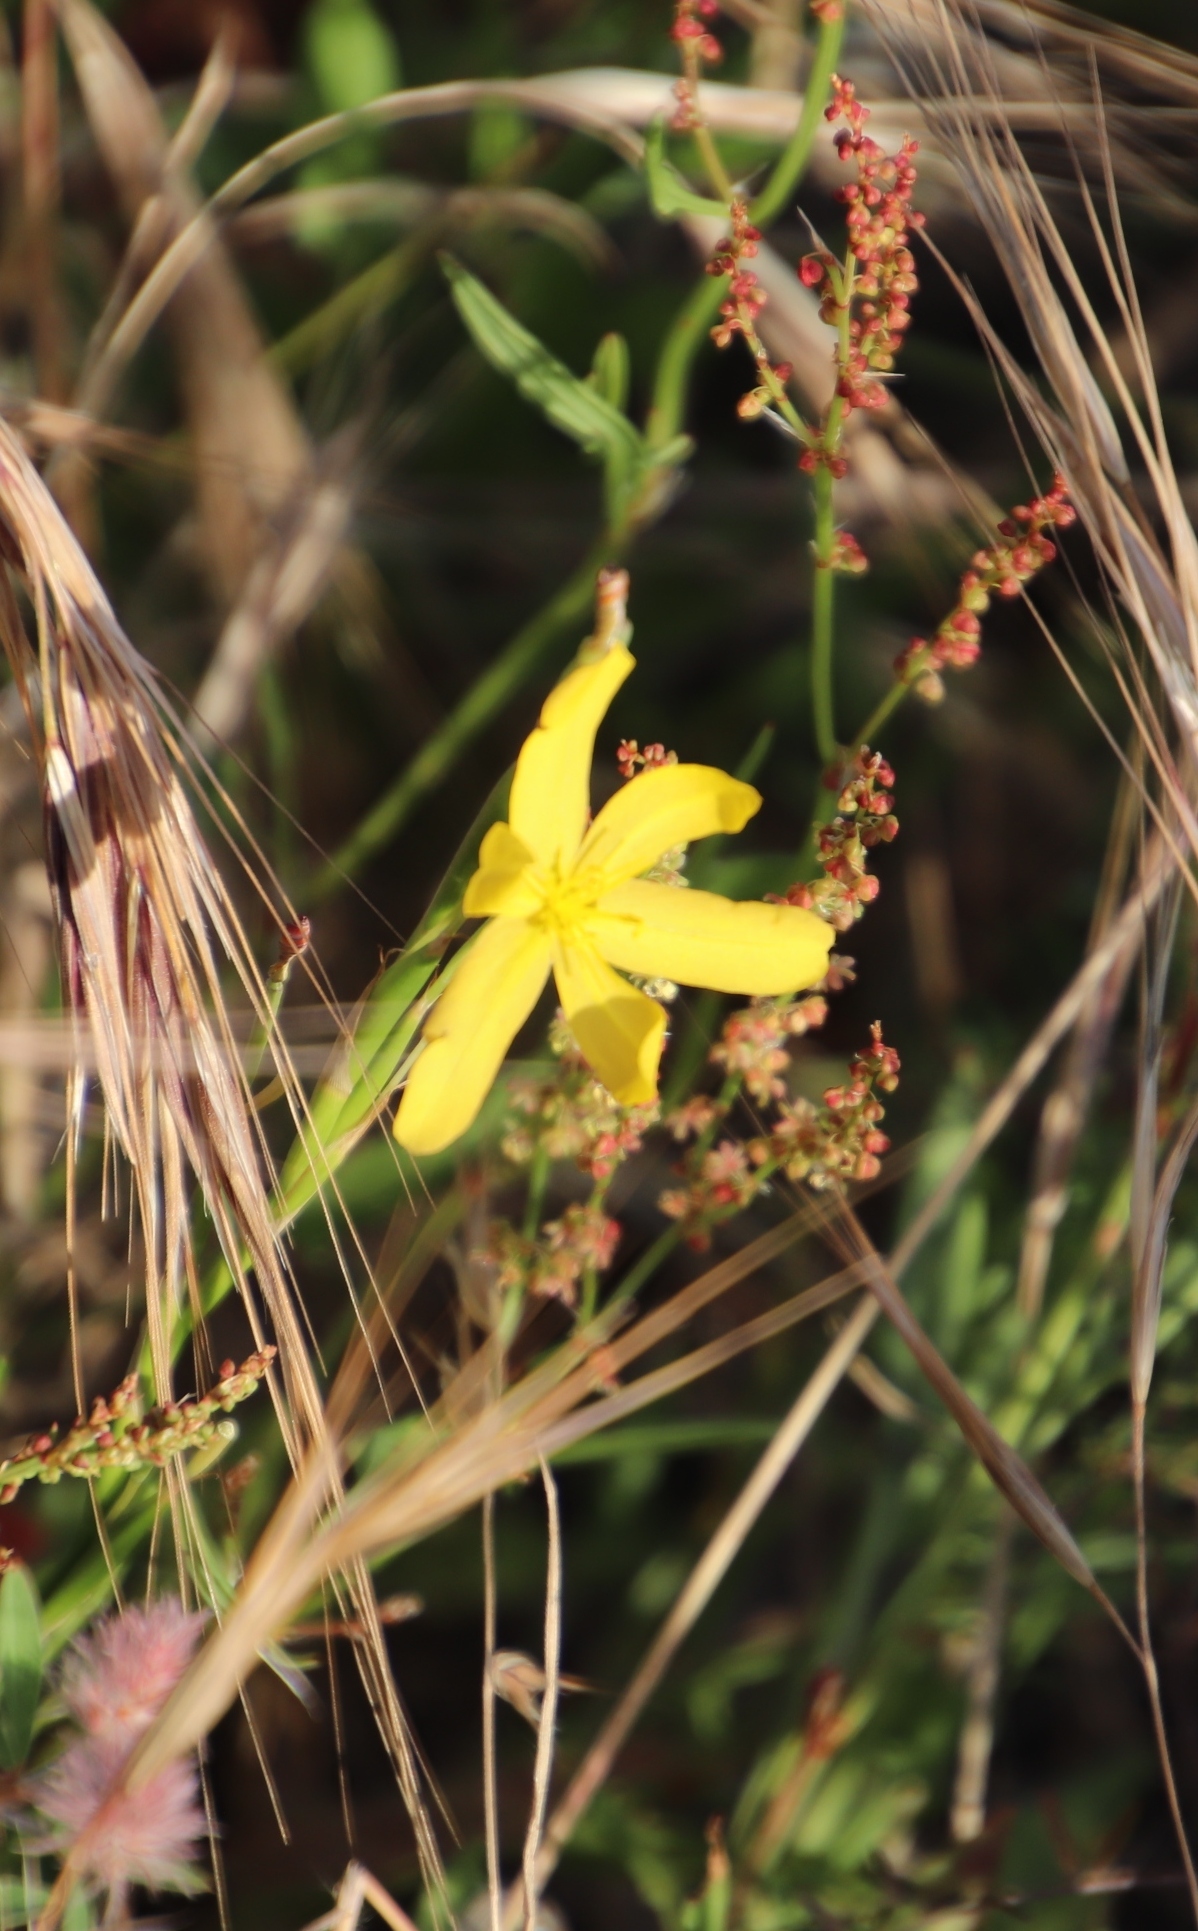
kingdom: Plantae
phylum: Tracheophyta
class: Liliopsida
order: Asparagales
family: Iridaceae
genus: Moraea
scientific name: Moraea lewisiae
